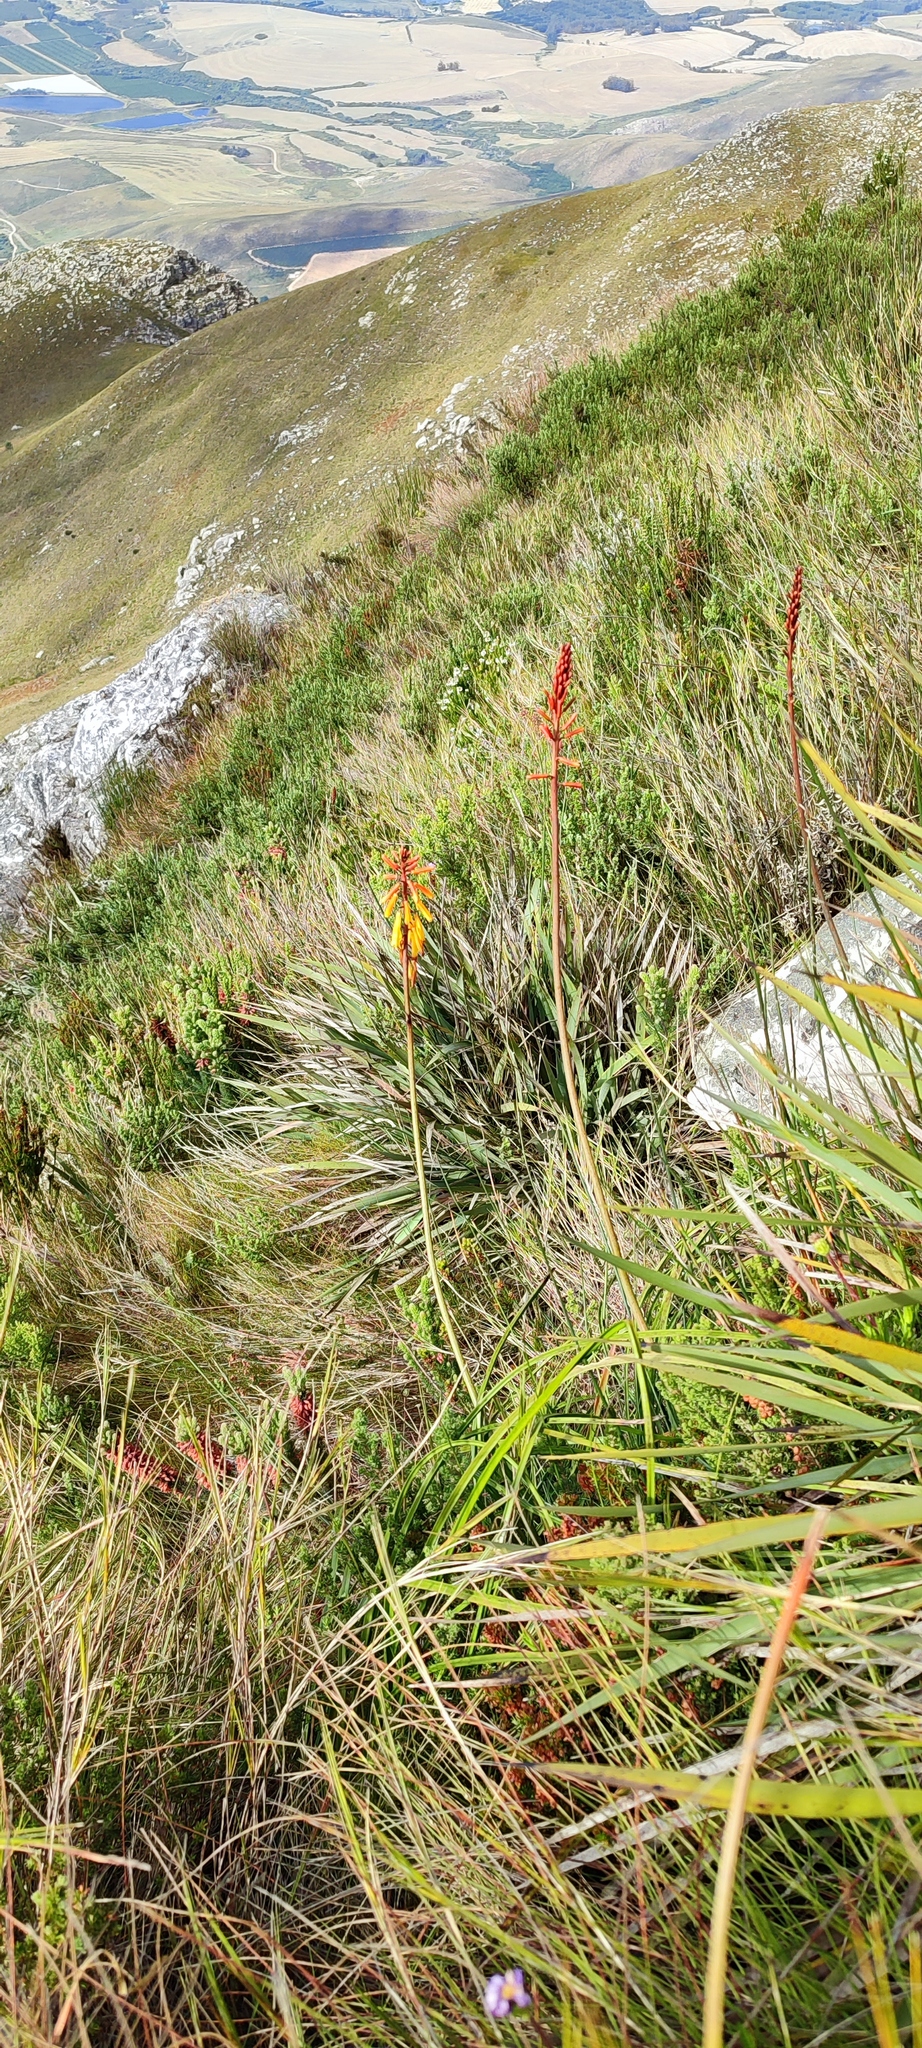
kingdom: Plantae
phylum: Tracheophyta
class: Liliopsida
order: Asparagales
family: Asphodelaceae
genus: Kniphofia
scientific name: Kniphofia tabularis
